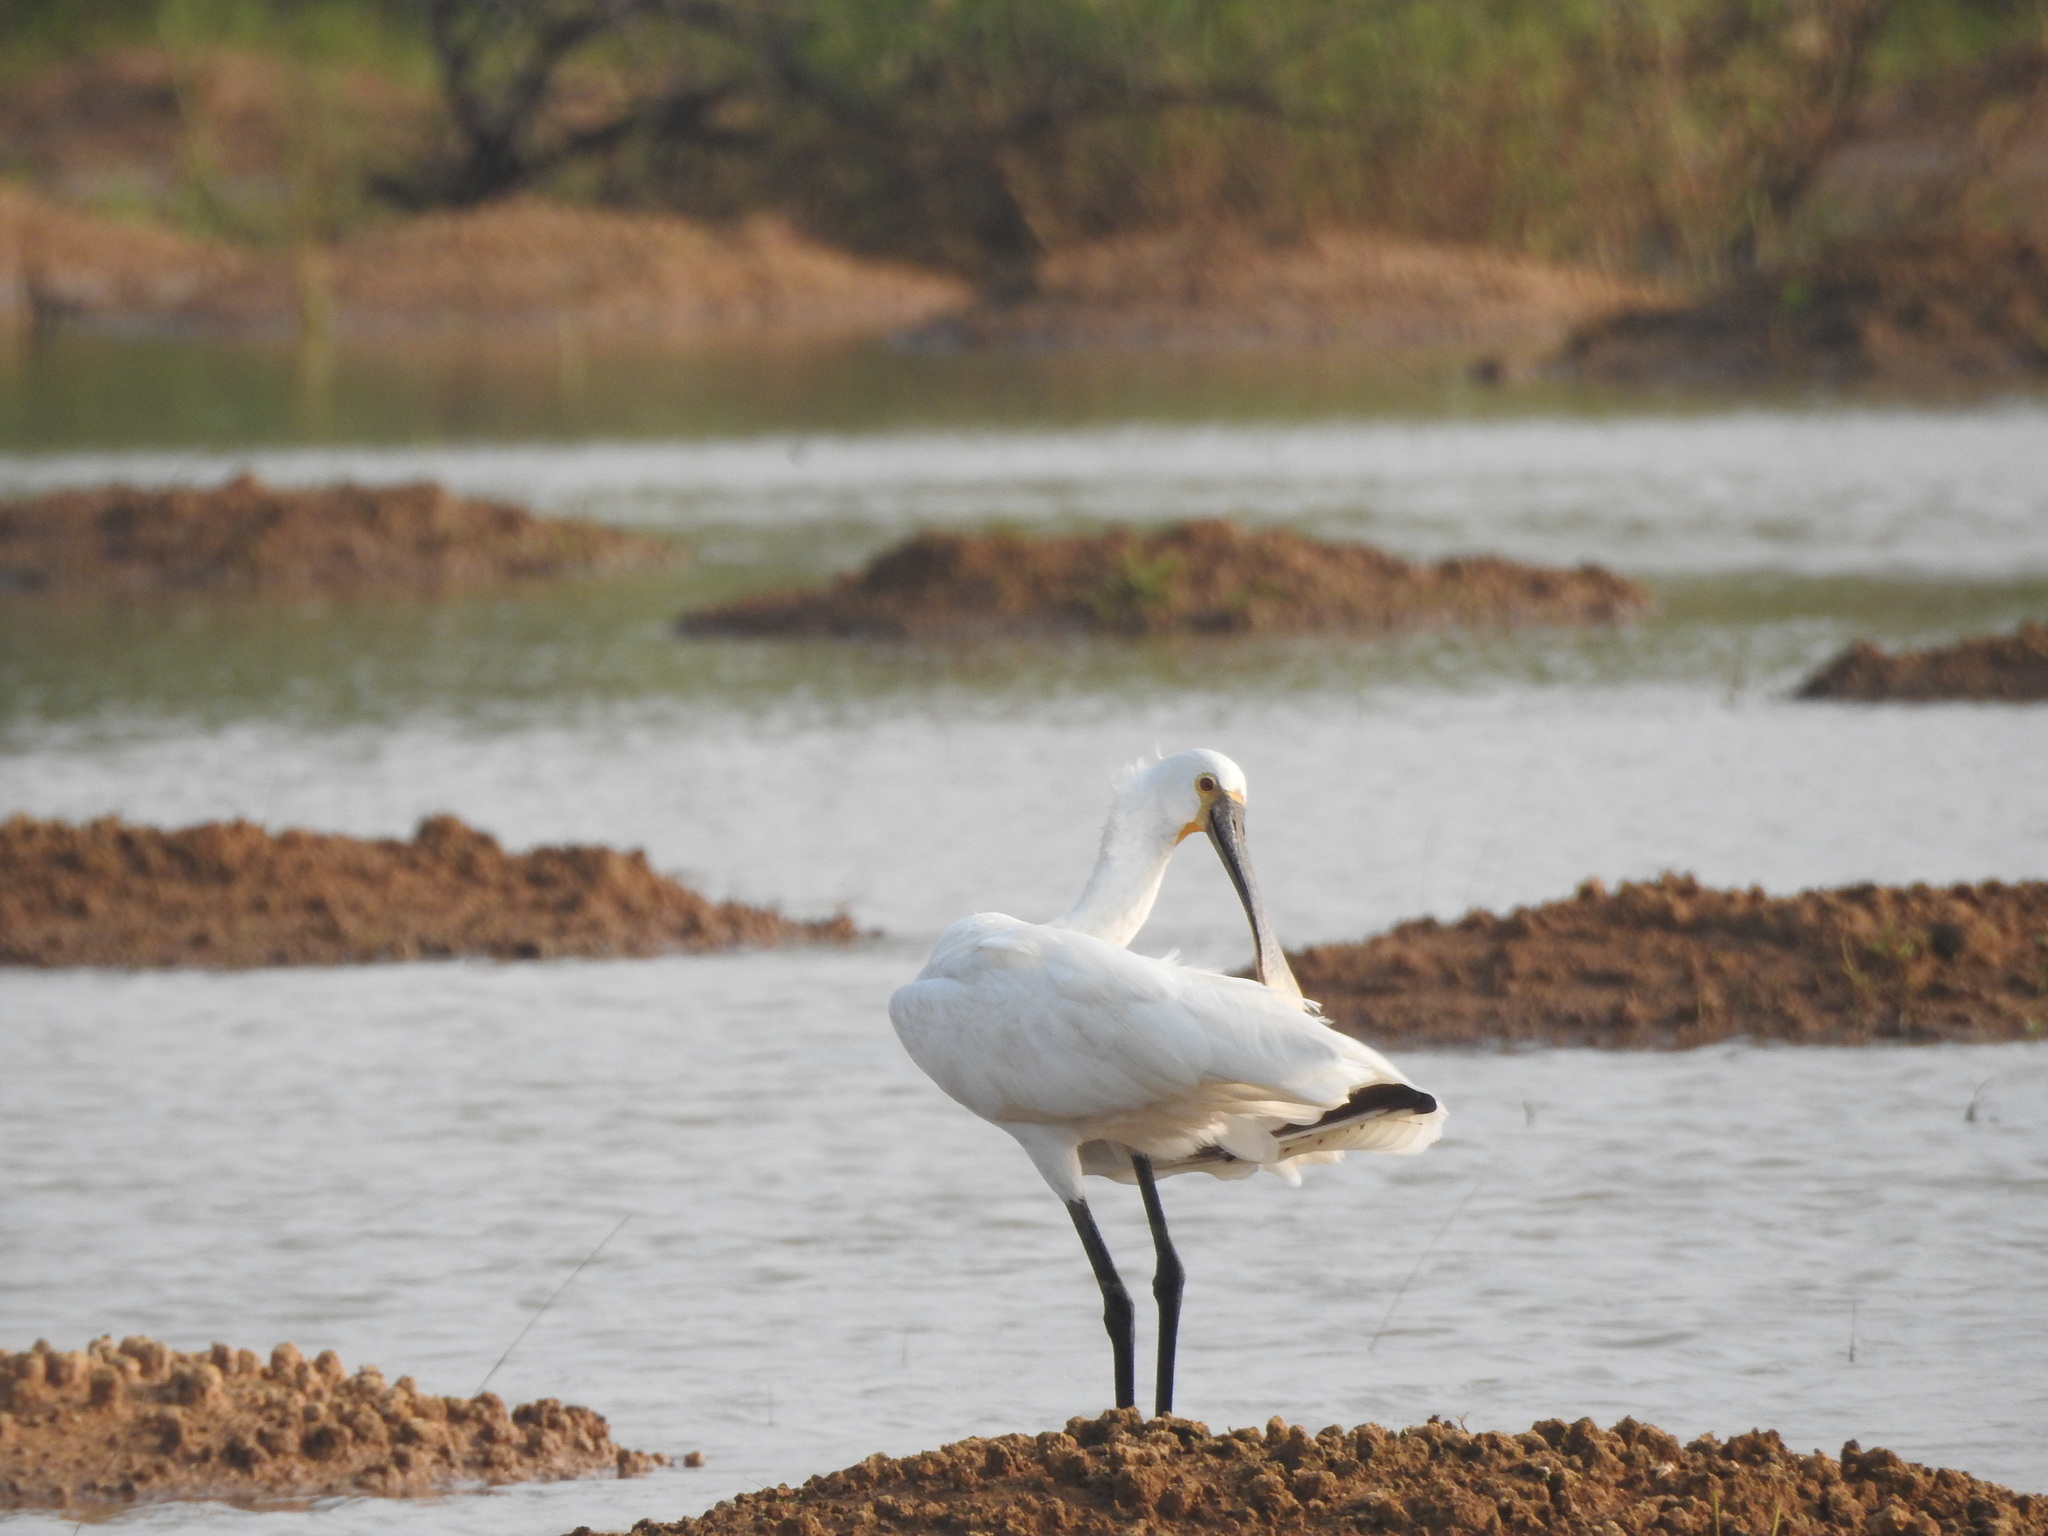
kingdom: Animalia
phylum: Chordata
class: Aves
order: Pelecaniformes
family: Threskiornithidae
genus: Platalea
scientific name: Platalea leucorodia
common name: Eurasian spoonbill
